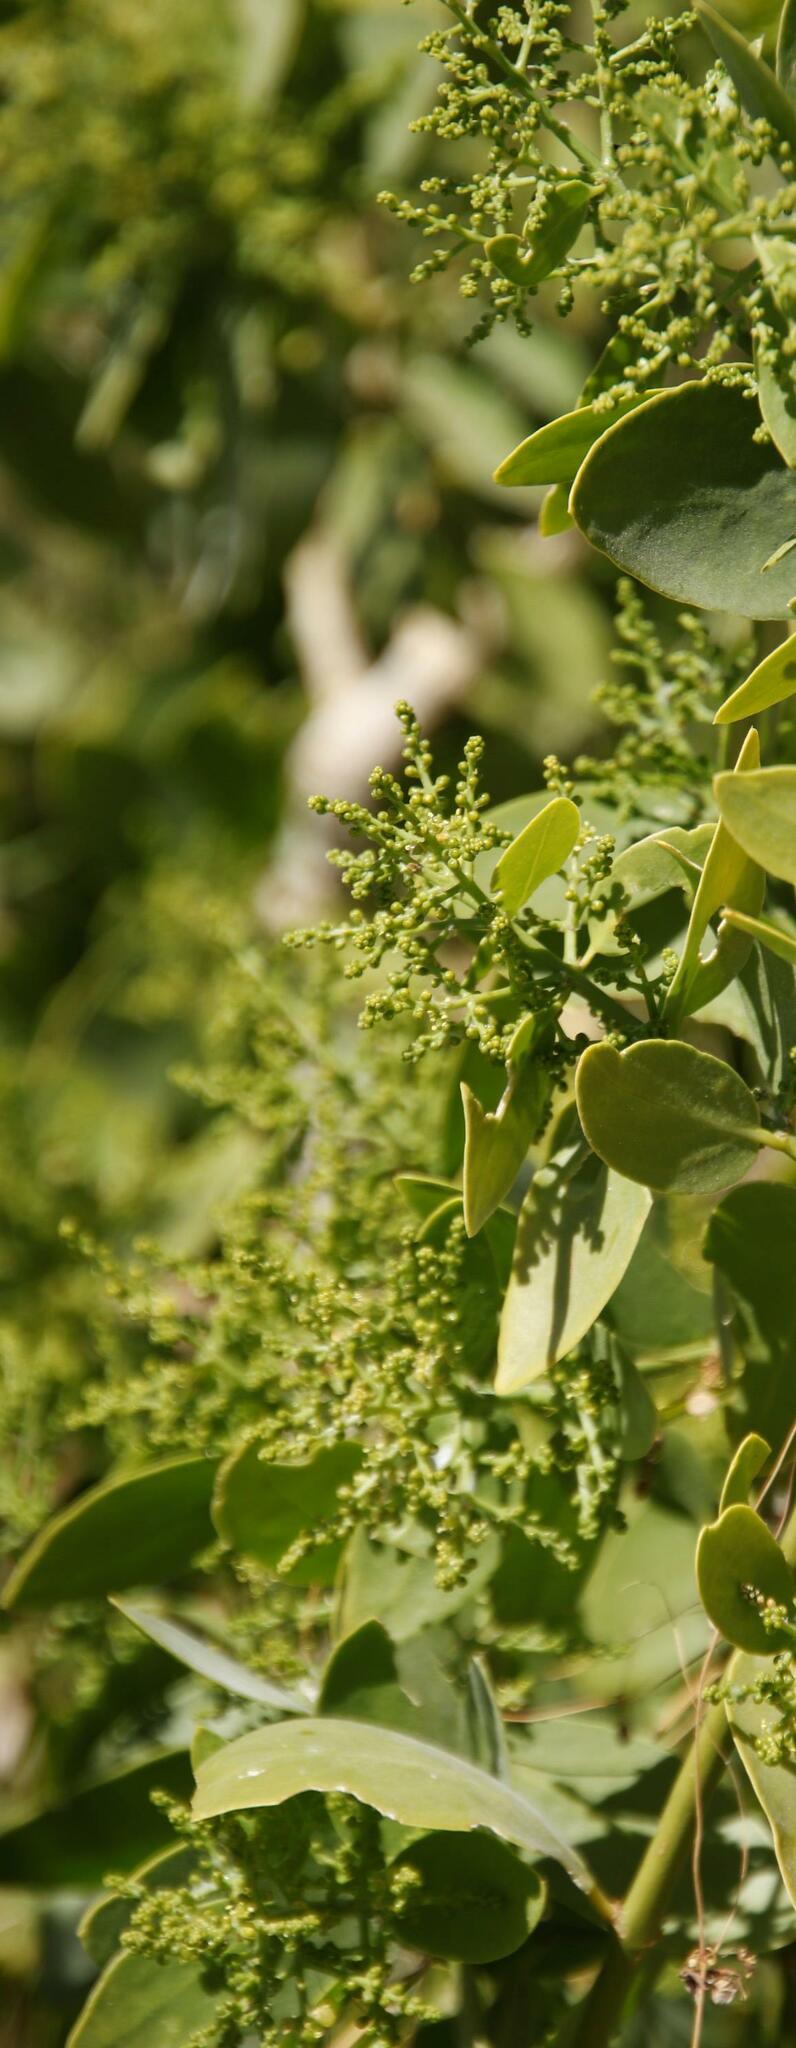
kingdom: Plantae
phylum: Tracheophyta
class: Magnoliopsida
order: Brassicales
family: Salvadoraceae
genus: Salvadora
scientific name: Salvadora persica
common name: Toothbrushtree
